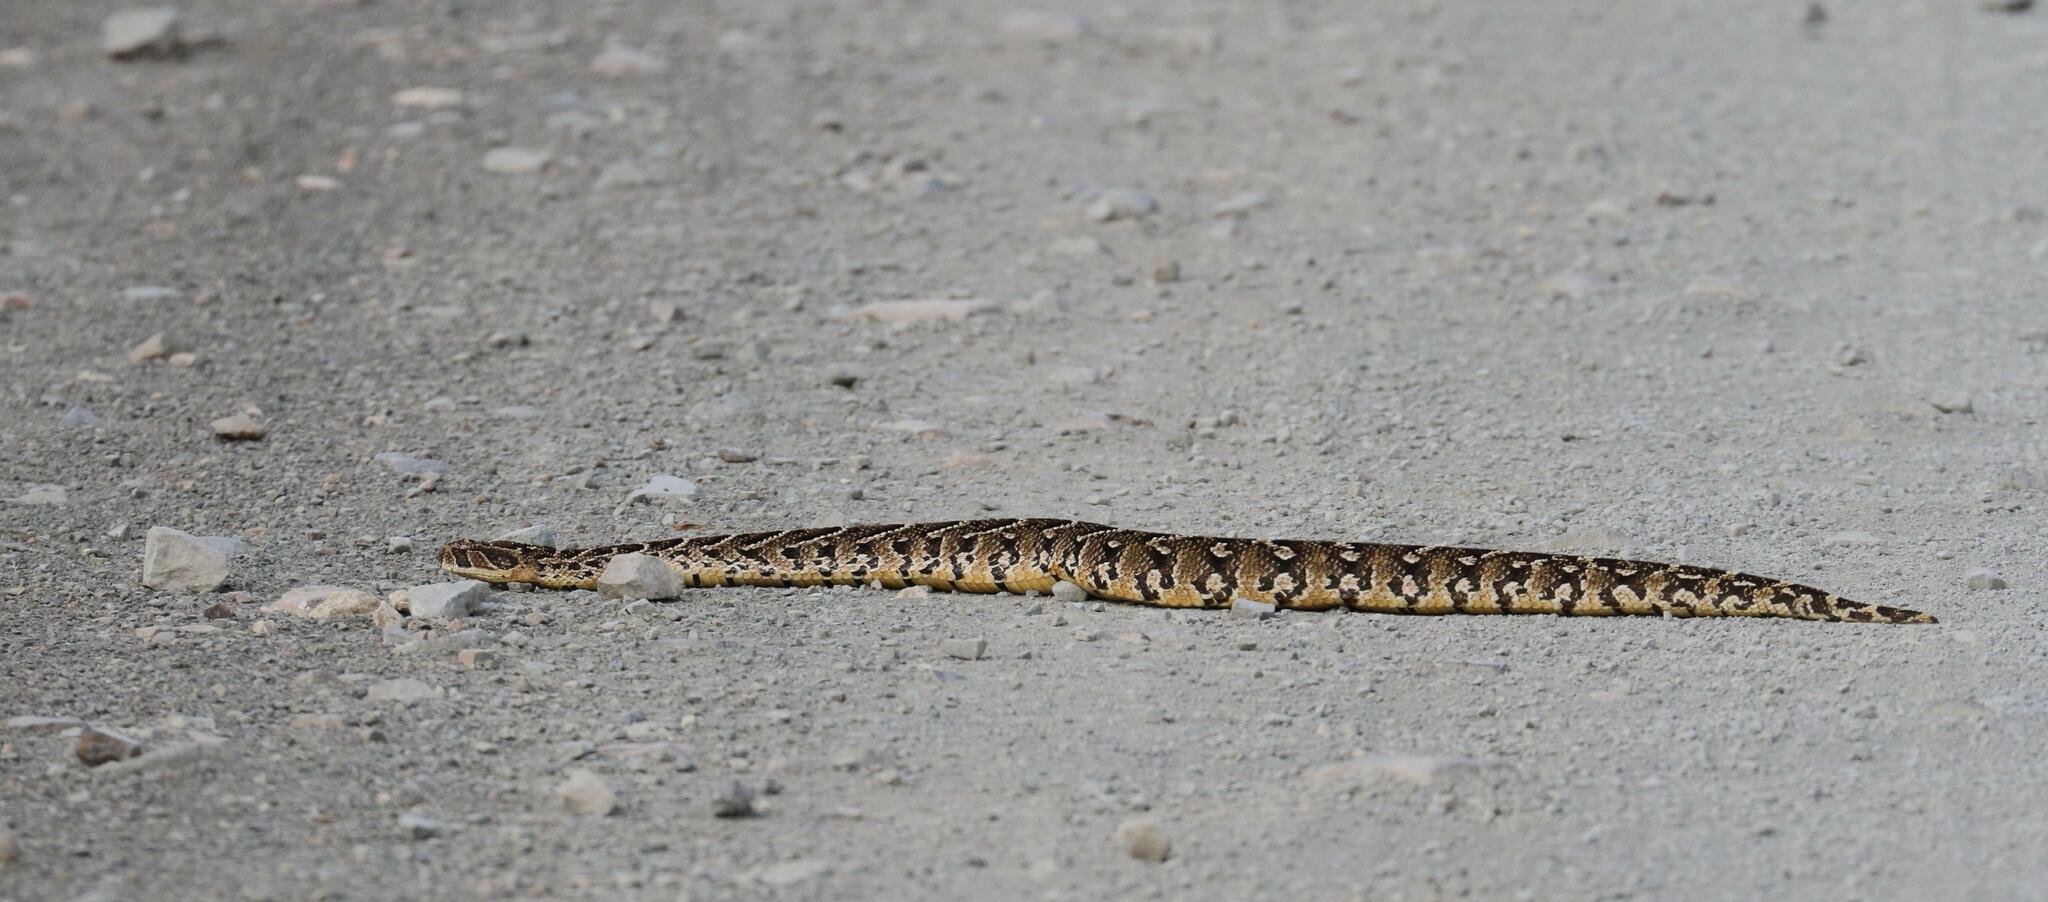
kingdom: Animalia
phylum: Chordata
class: Squamata
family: Viperidae
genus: Bitis
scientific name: Bitis arietans
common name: Puff adder
